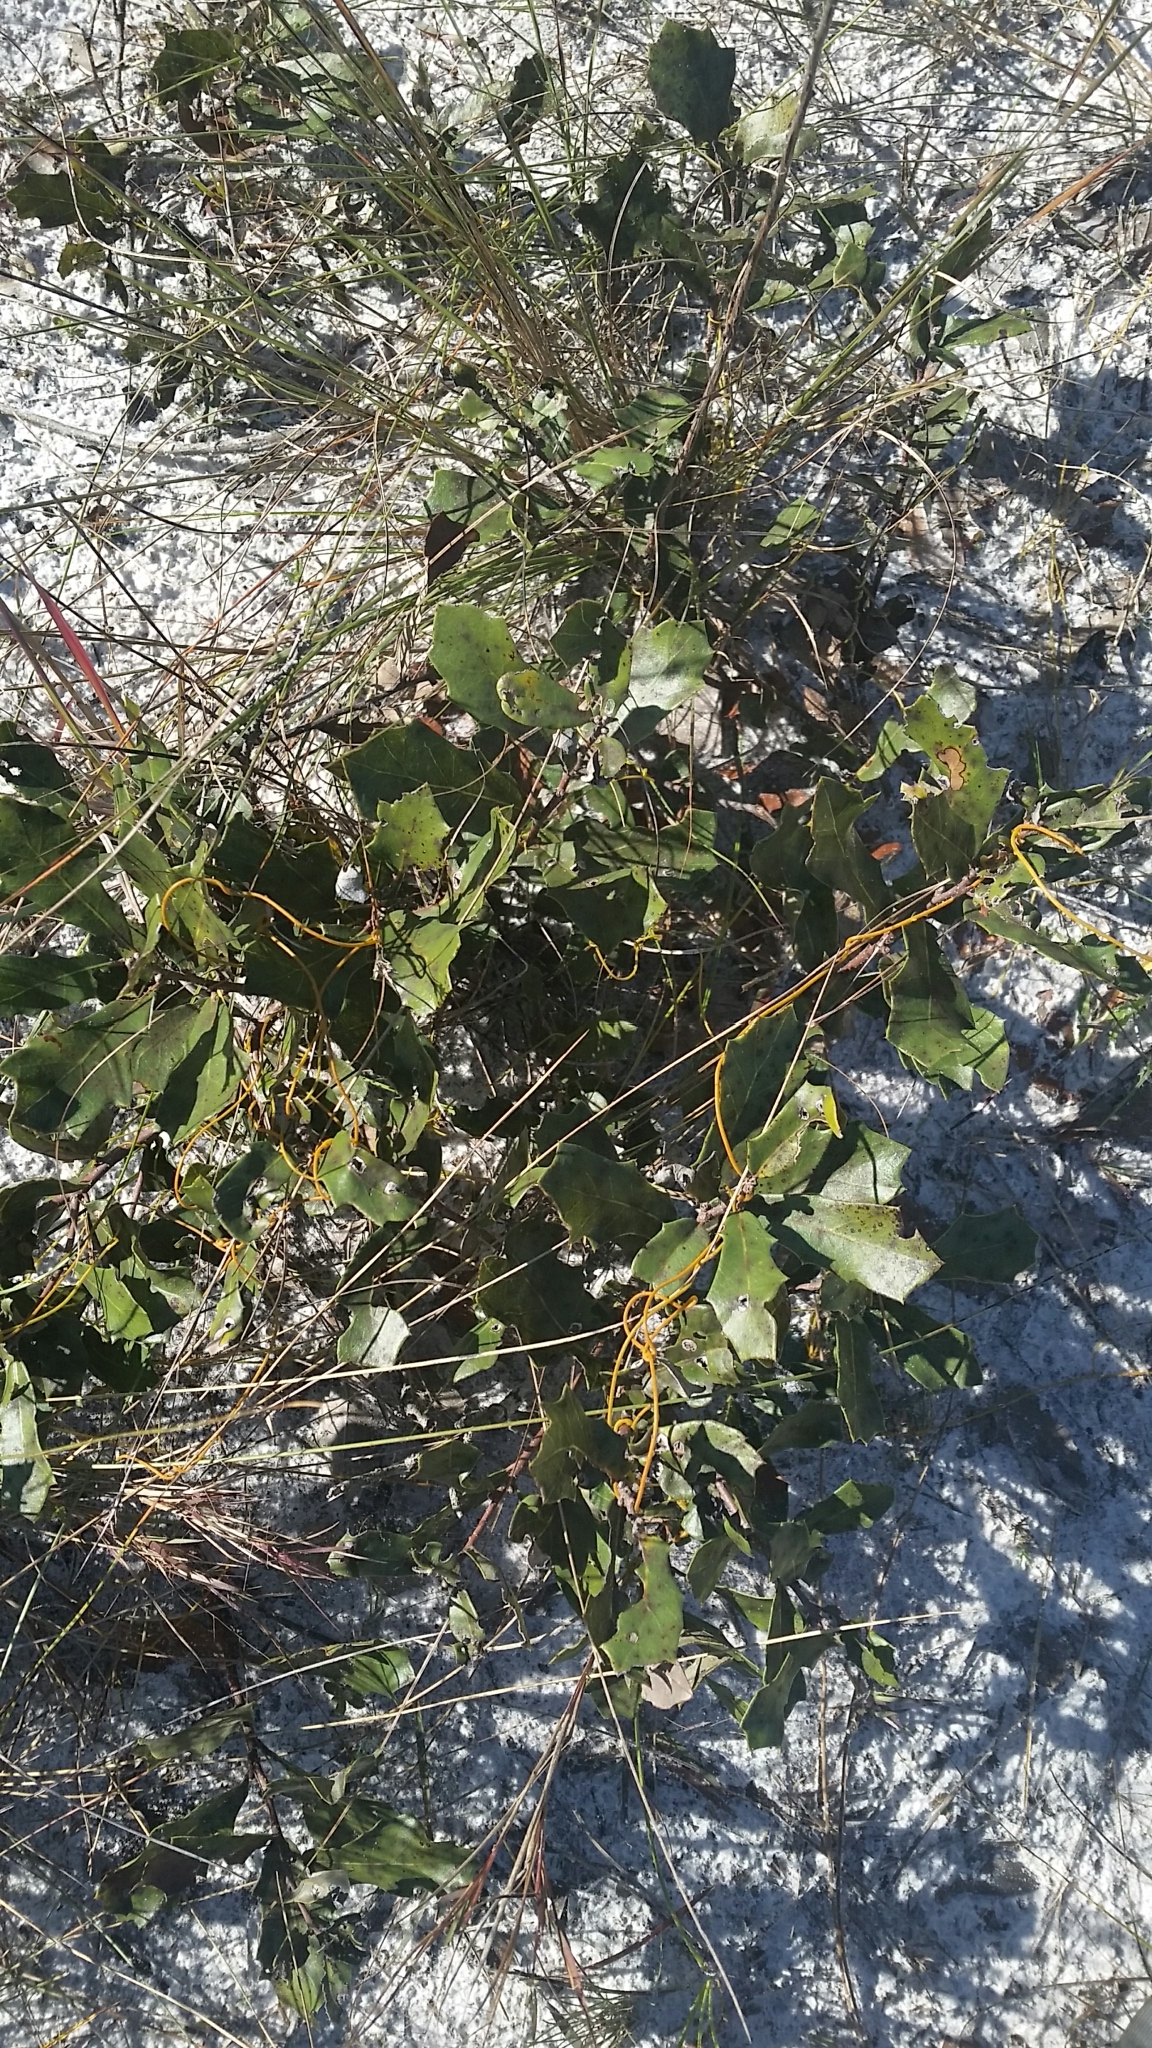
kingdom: Plantae
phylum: Tracheophyta
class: Magnoliopsida
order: Fagales
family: Fagaceae
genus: Quercus
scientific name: Quercus minima
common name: Dwarf live oak
